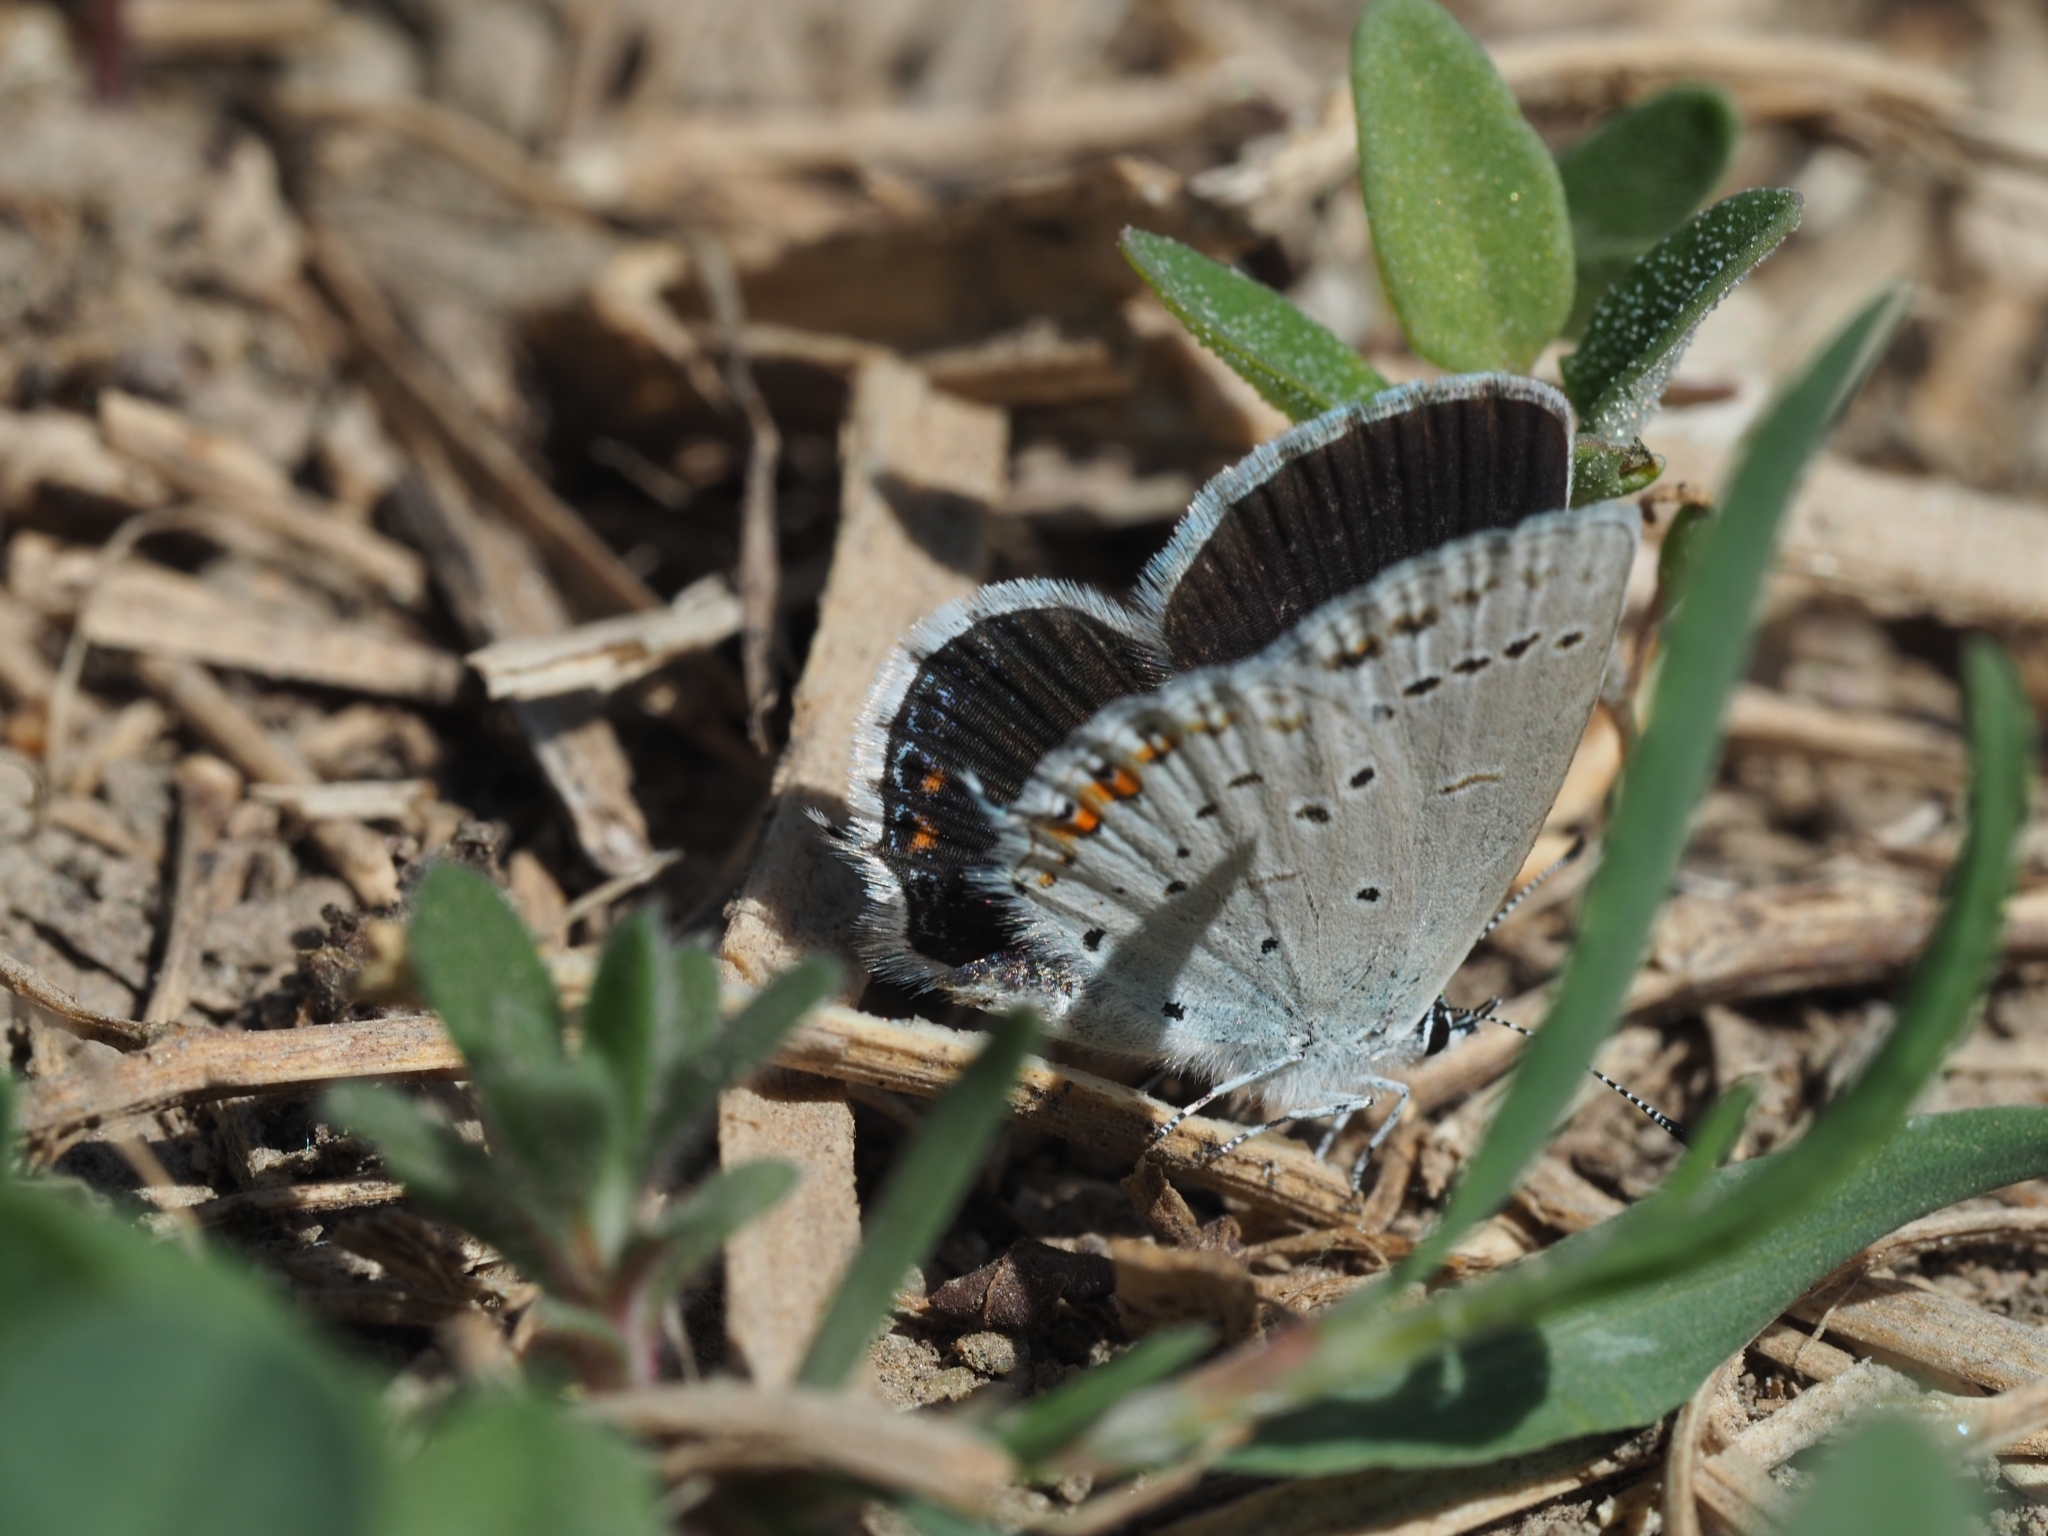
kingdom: Animalia
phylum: Arthropoda
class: Insecta
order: Lepidoptera
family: Lycaenidae
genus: Elkalyce
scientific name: Elkalyce argiades
